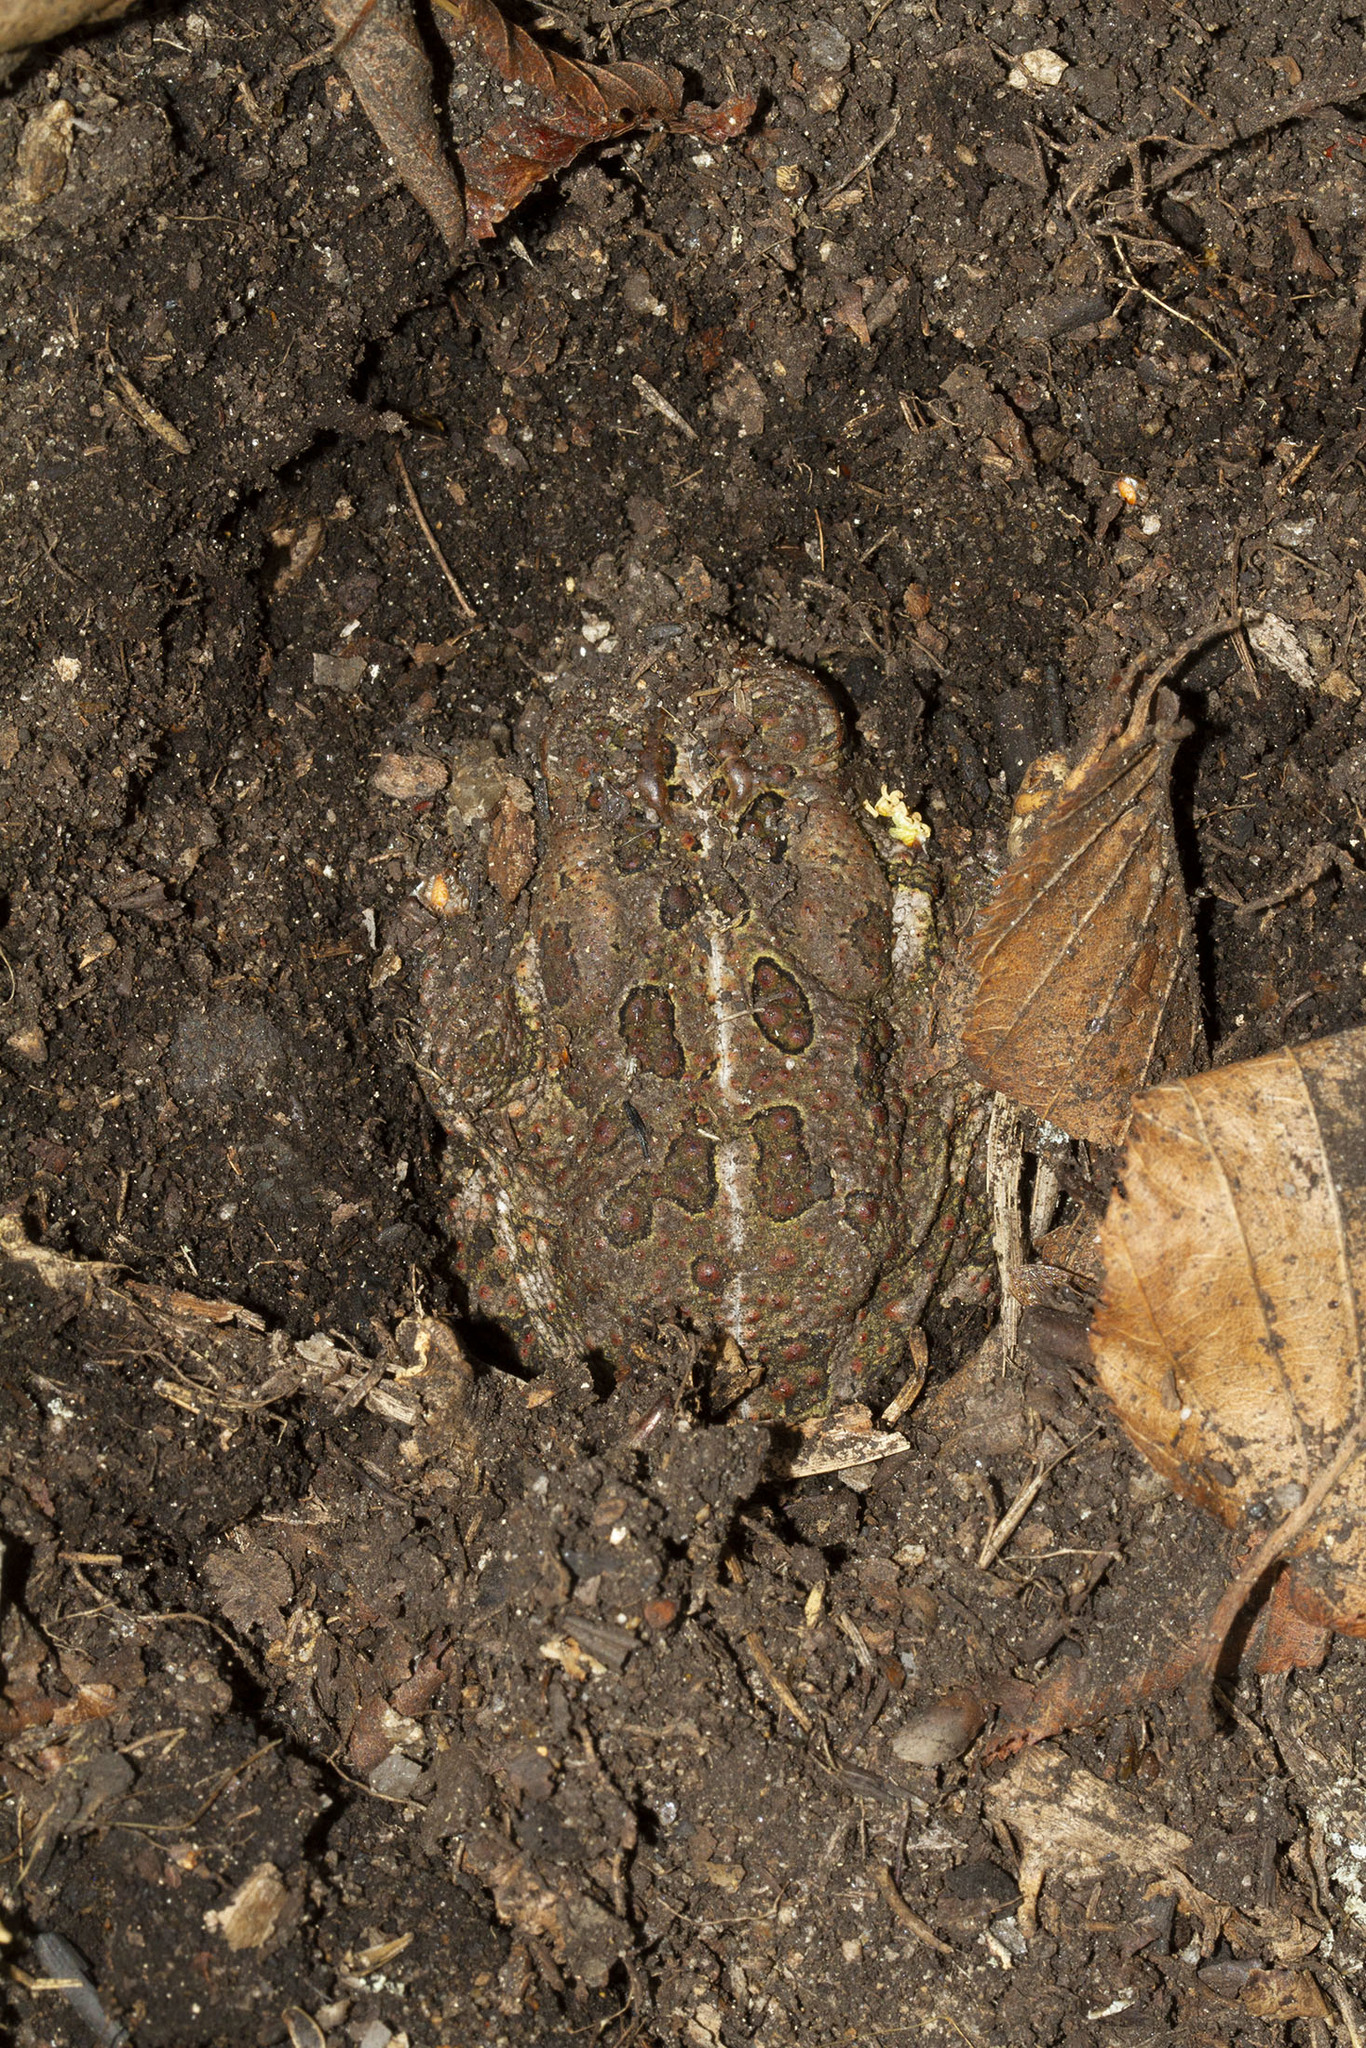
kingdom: Animalia
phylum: Chordata
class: Amphibia
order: Anura
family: Bufonidae
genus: Anaxyrus
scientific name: Anaxyrus fowleri
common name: Fowler's toad
